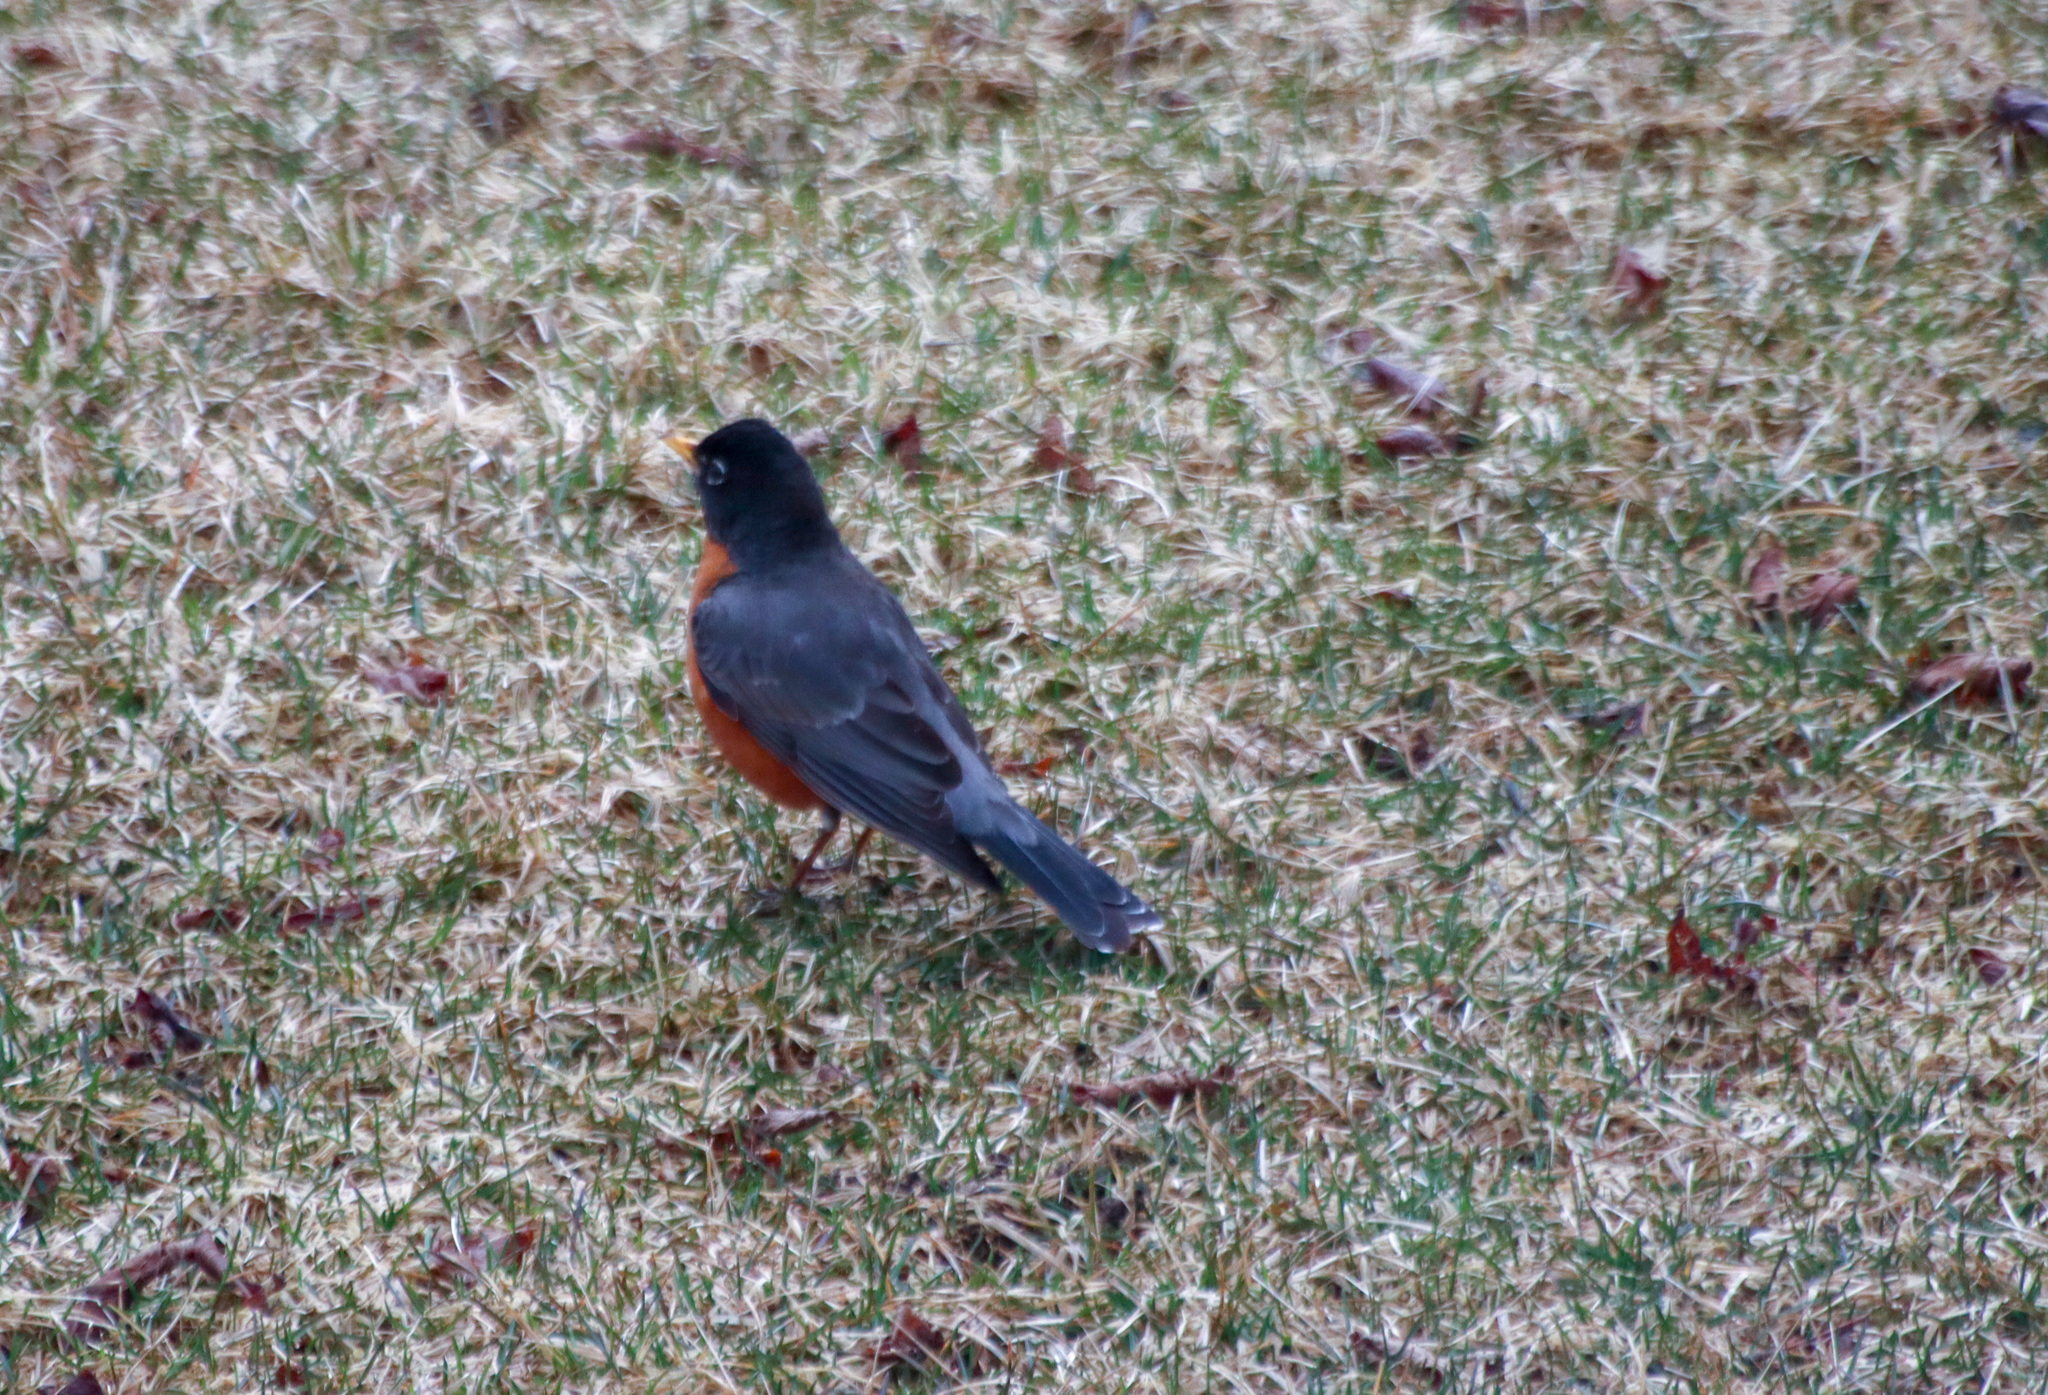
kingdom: Animalia
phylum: Chordata
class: Aves
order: Passeriformes
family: Turdidae
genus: Turdus
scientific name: Turdus migratorius
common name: American robin
